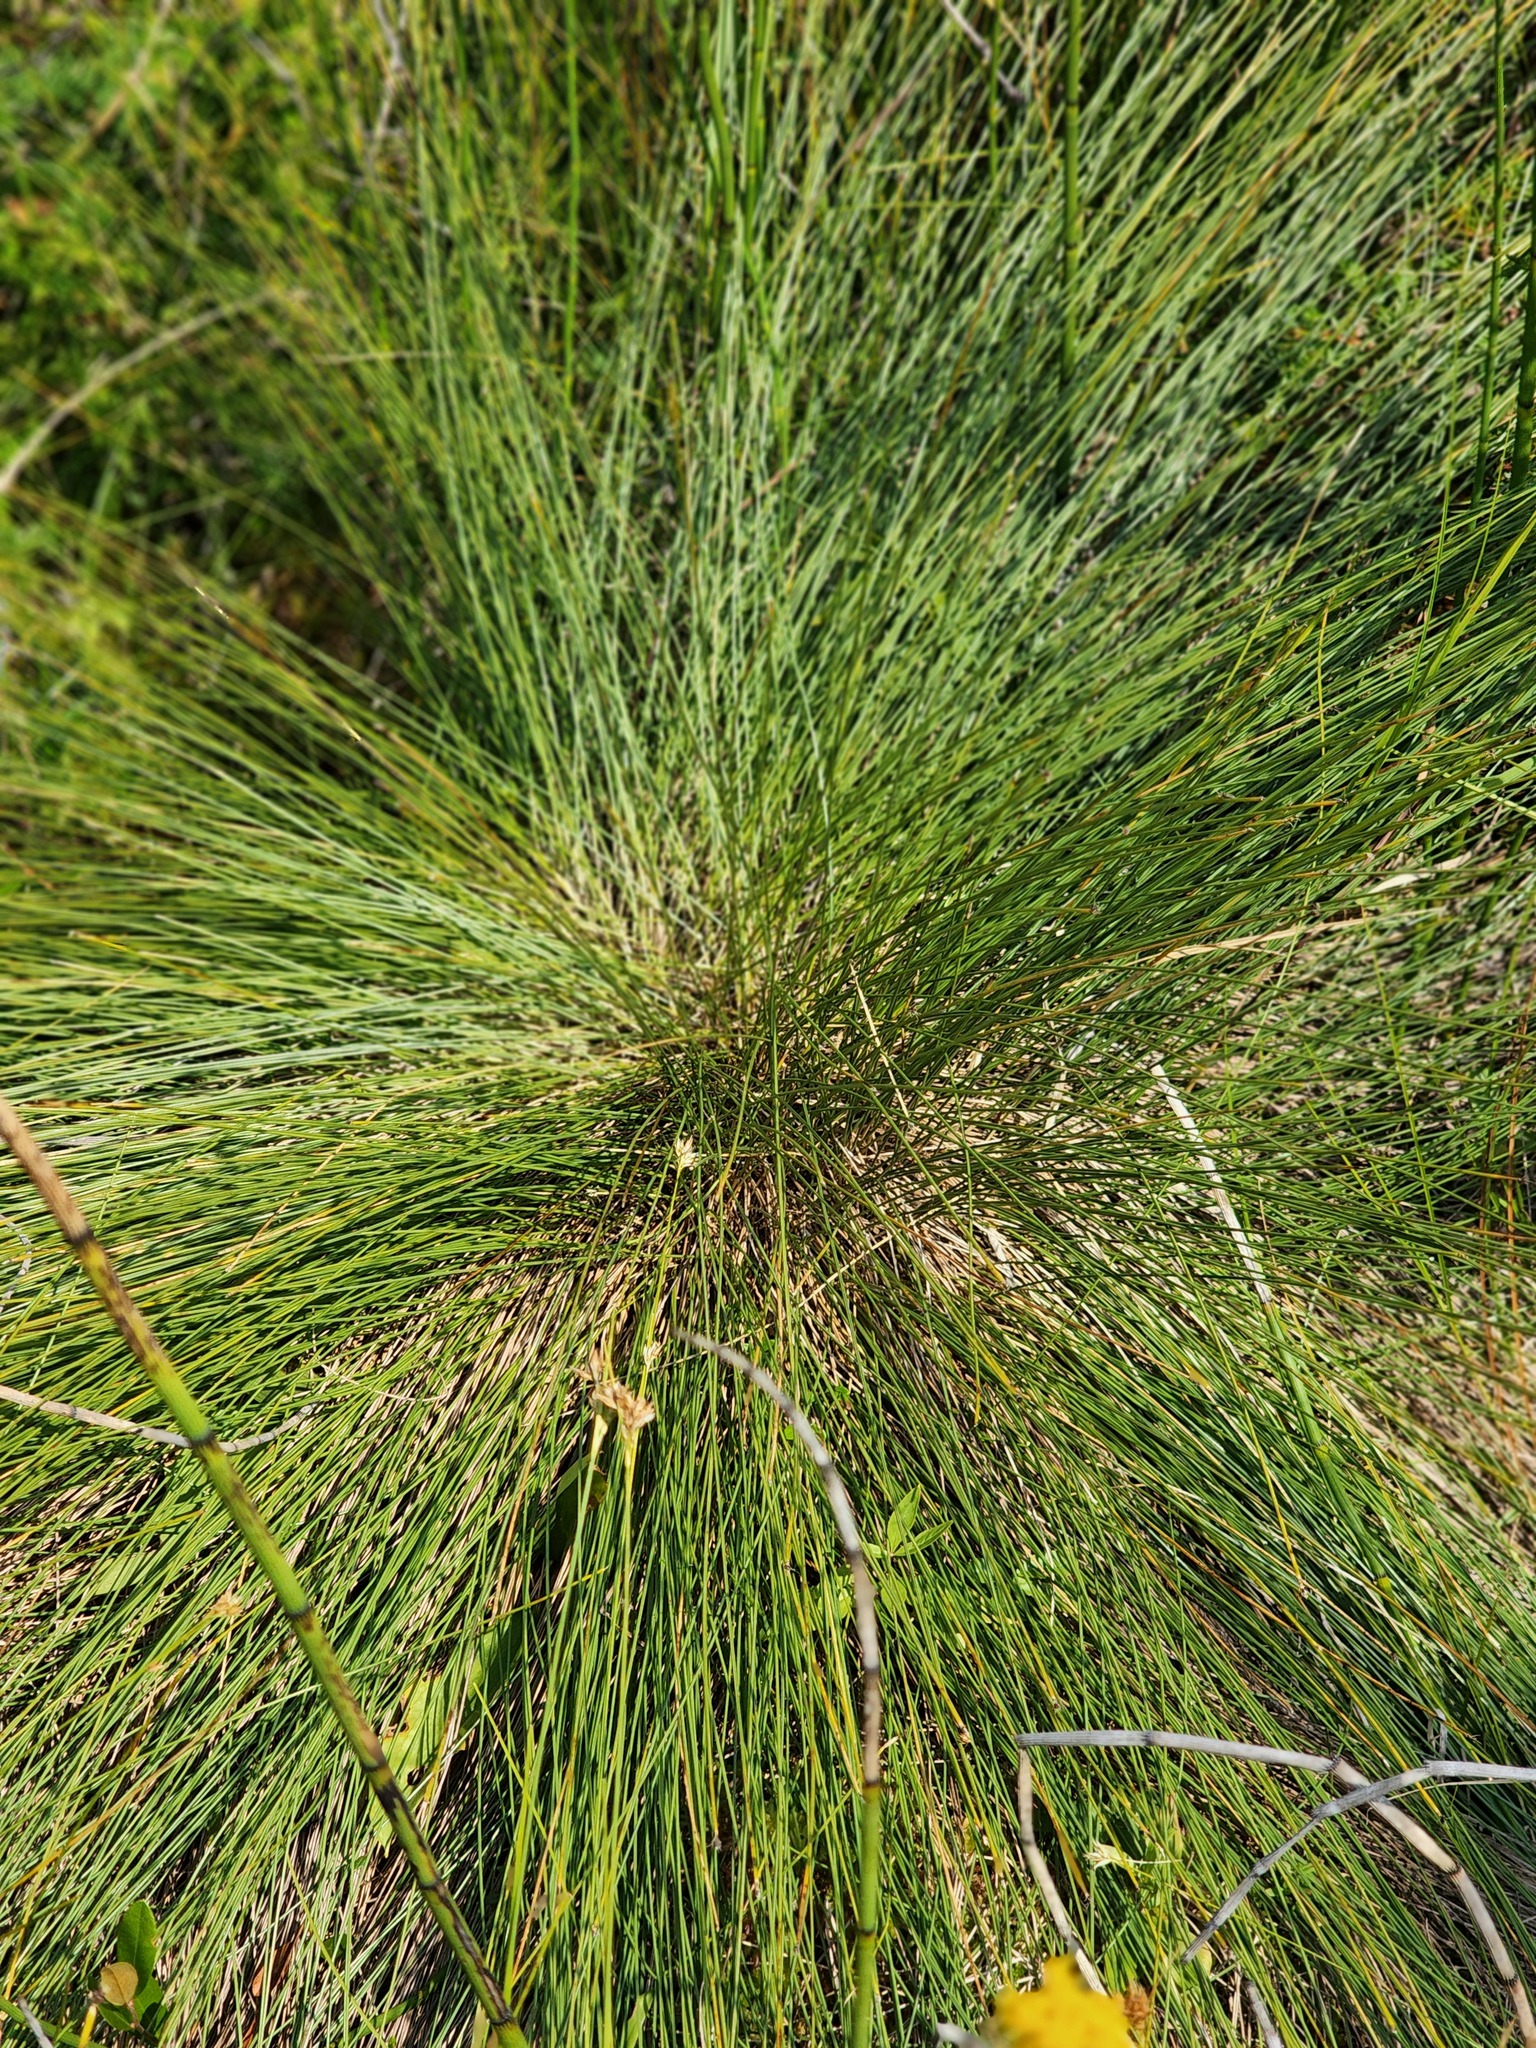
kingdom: Plantae
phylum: Tracheophyta
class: Liliopsida
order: Poales
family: Cyperaceae
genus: Trichophorum
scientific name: Trichophorum cespitosum
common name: Cespitose bulrush
